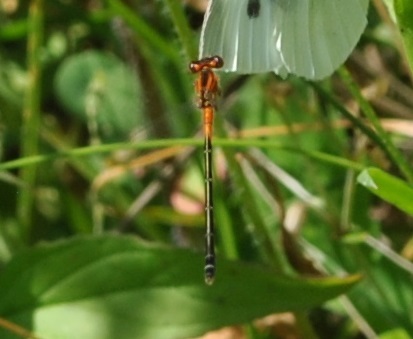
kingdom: Animalia
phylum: Arthropoda
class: Insecta
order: Odonata
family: Coenagrionidae
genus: Ischnura
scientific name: Ischnura verticalis
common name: Eastern forktail
